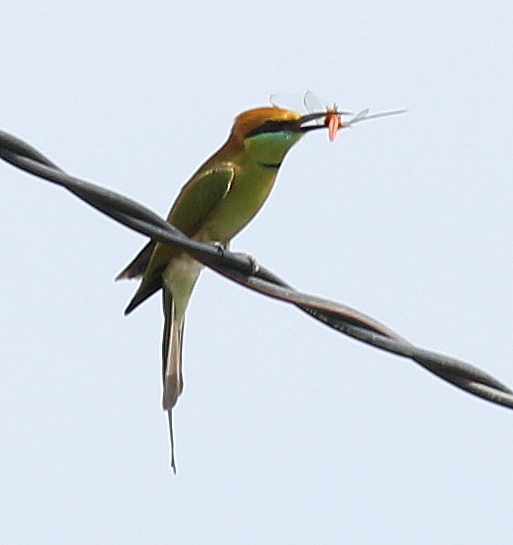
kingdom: Animalia
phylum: Chordata
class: Aves
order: Coraciiformes
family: Meropidae
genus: Merops
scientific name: Merops orientalis
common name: Green bee-eater
